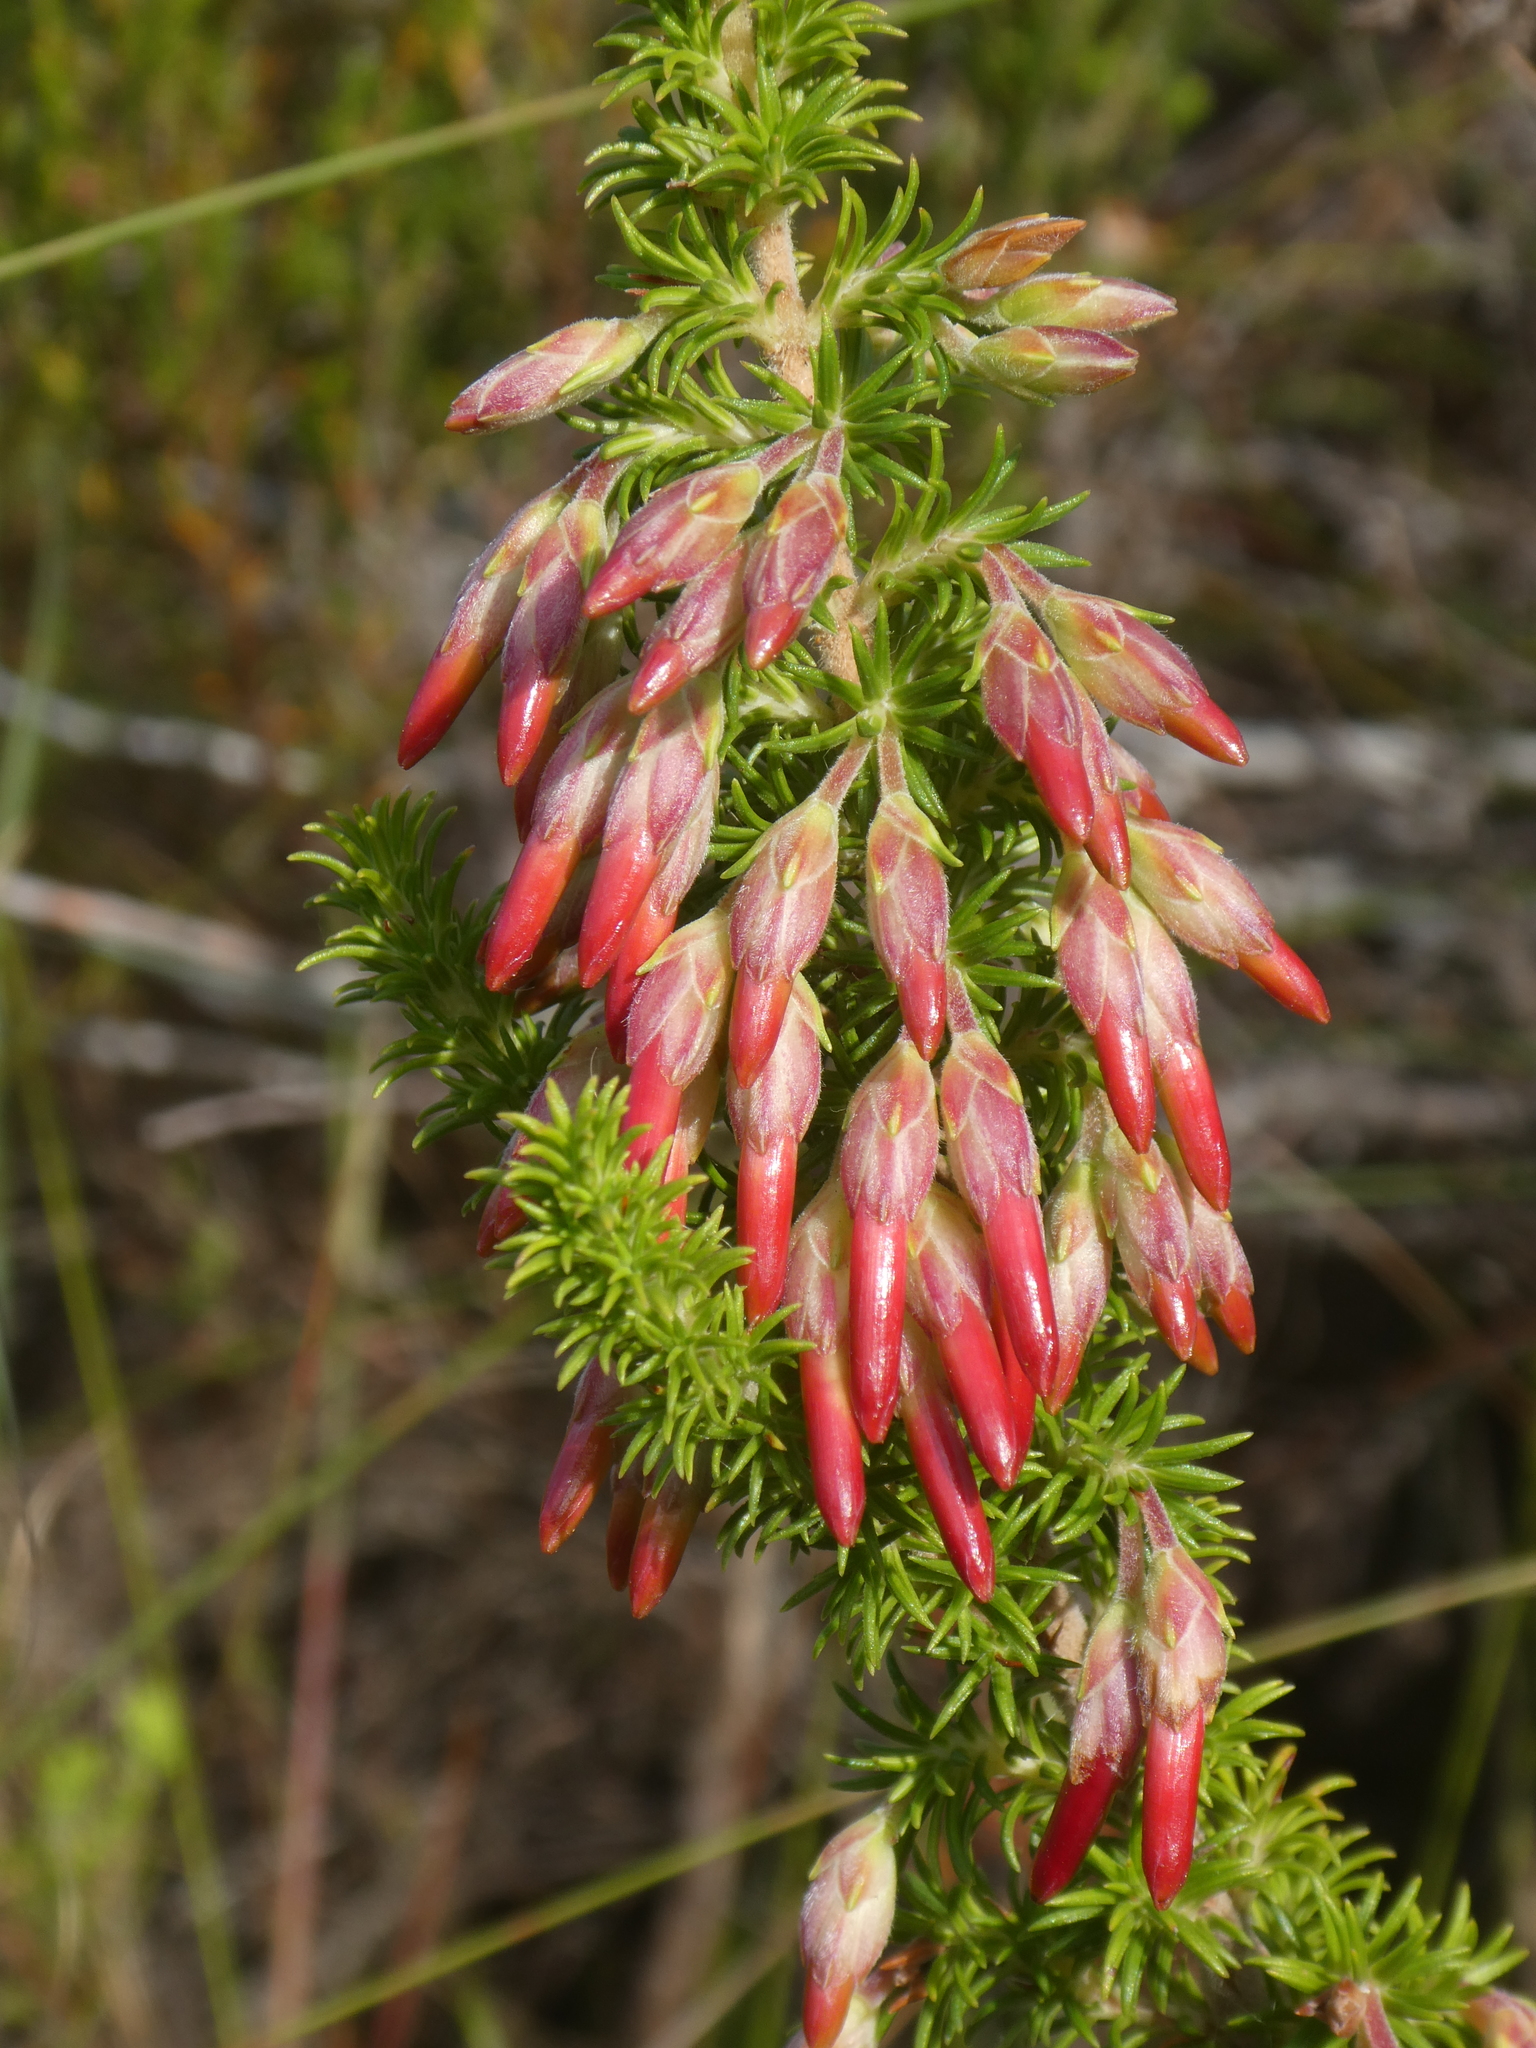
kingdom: Plantae
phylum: Tracheophyta
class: Magnoliopsida
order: Ericales
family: Ericaceae
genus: Erica
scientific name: Erica coccinea
